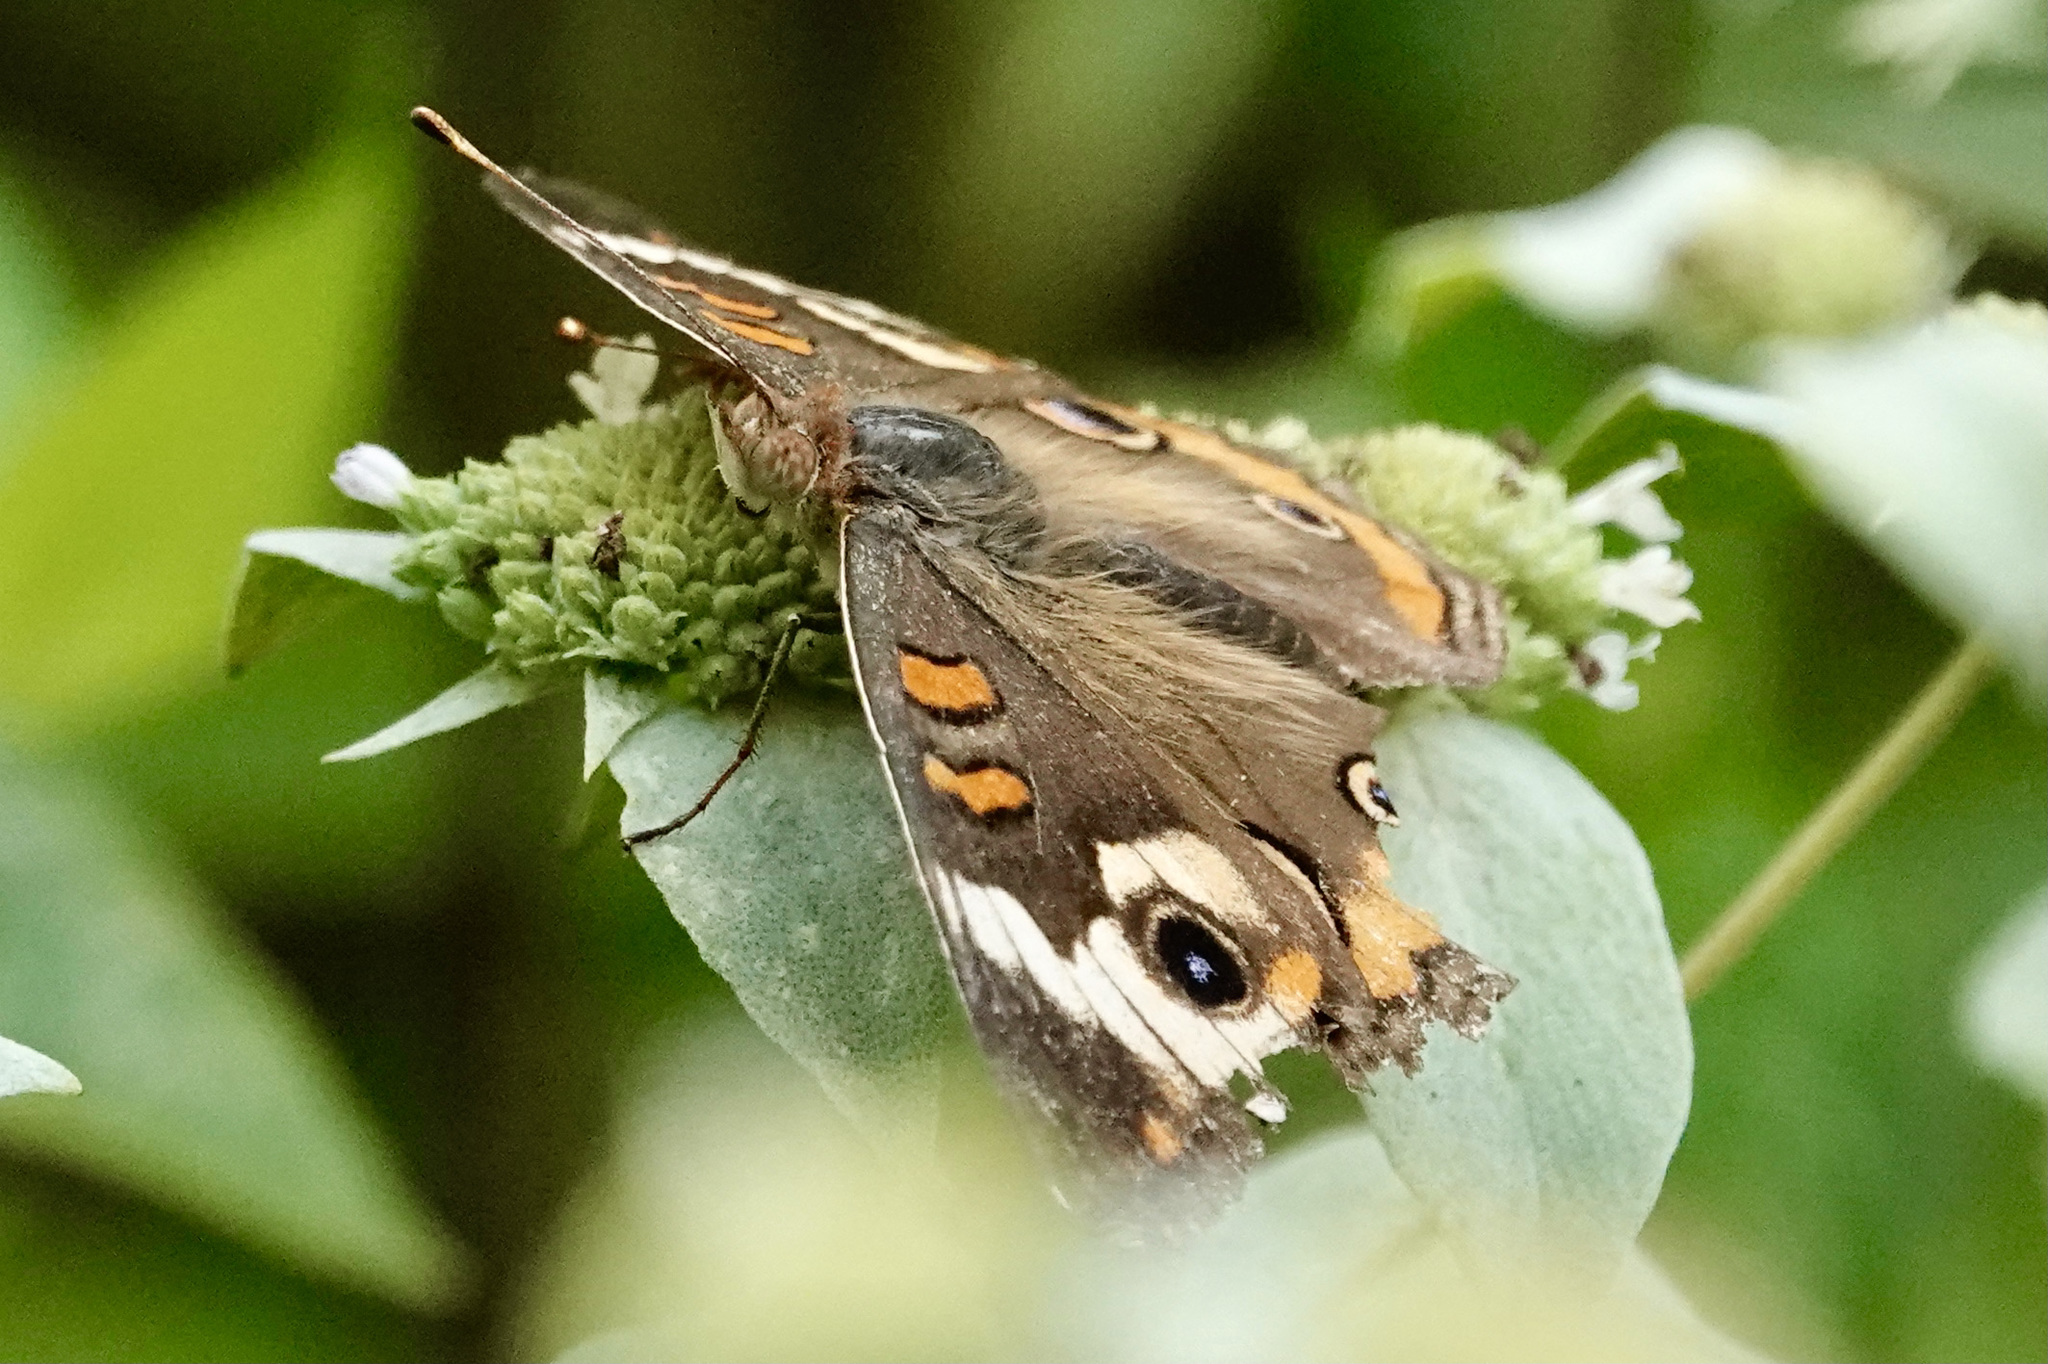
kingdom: Animalia
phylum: Arthropoda
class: Insecta
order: Lepidoptera
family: Nymphalidae
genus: Junonia
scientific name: Junonia coenia
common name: Common buckeye
